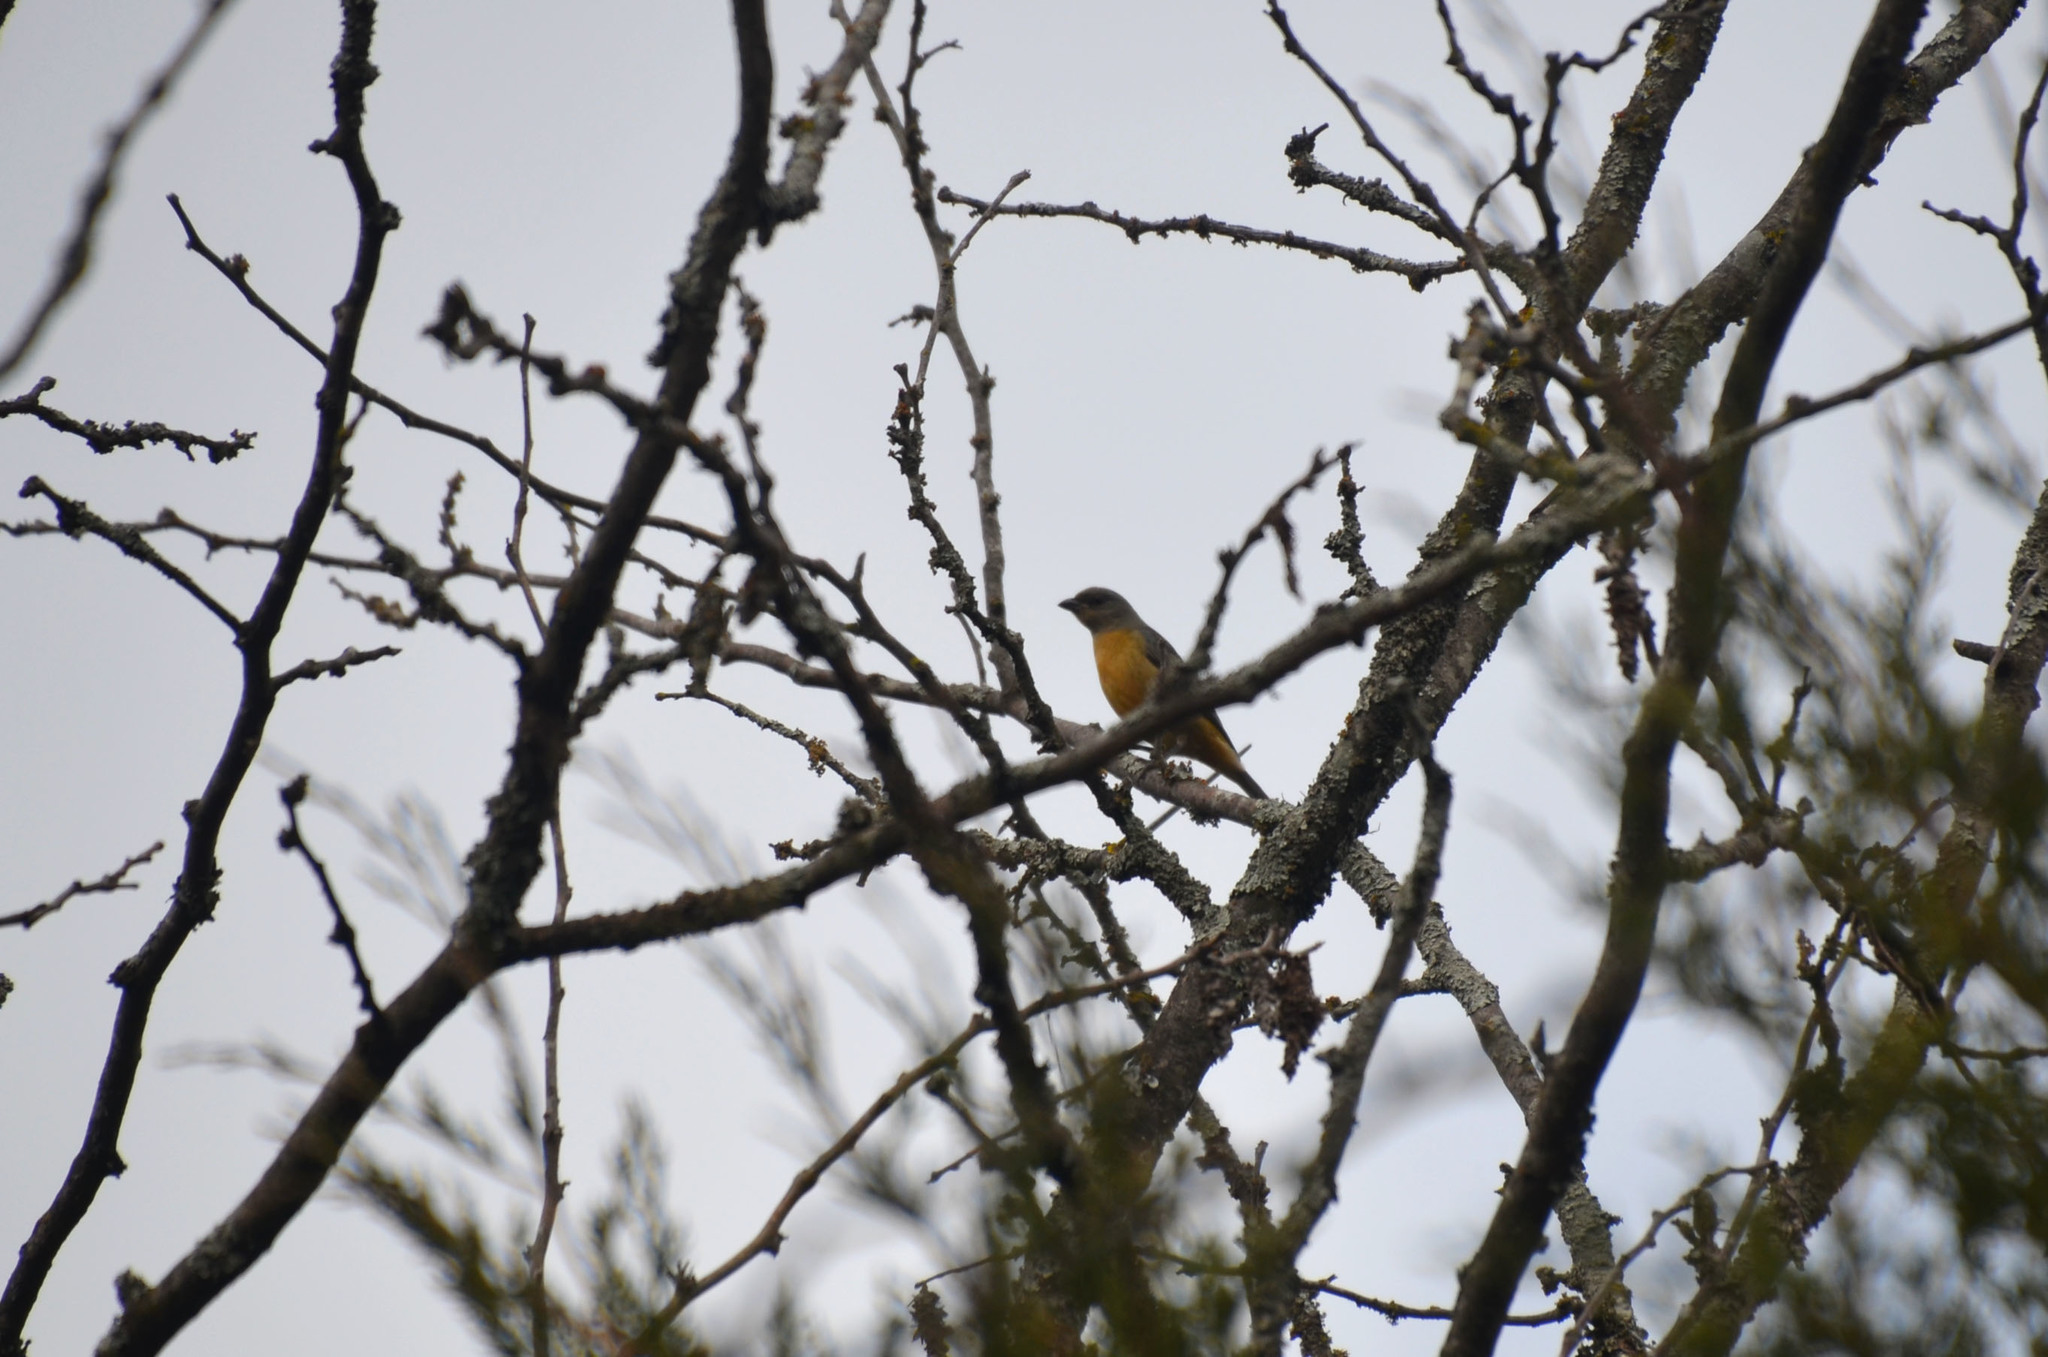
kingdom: Animalia
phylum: Chordata
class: Aves
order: Passeriformes
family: Thraupidae
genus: Rauenia
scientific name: Rauenia bonariensis
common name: Blue-and-yellow tanager
